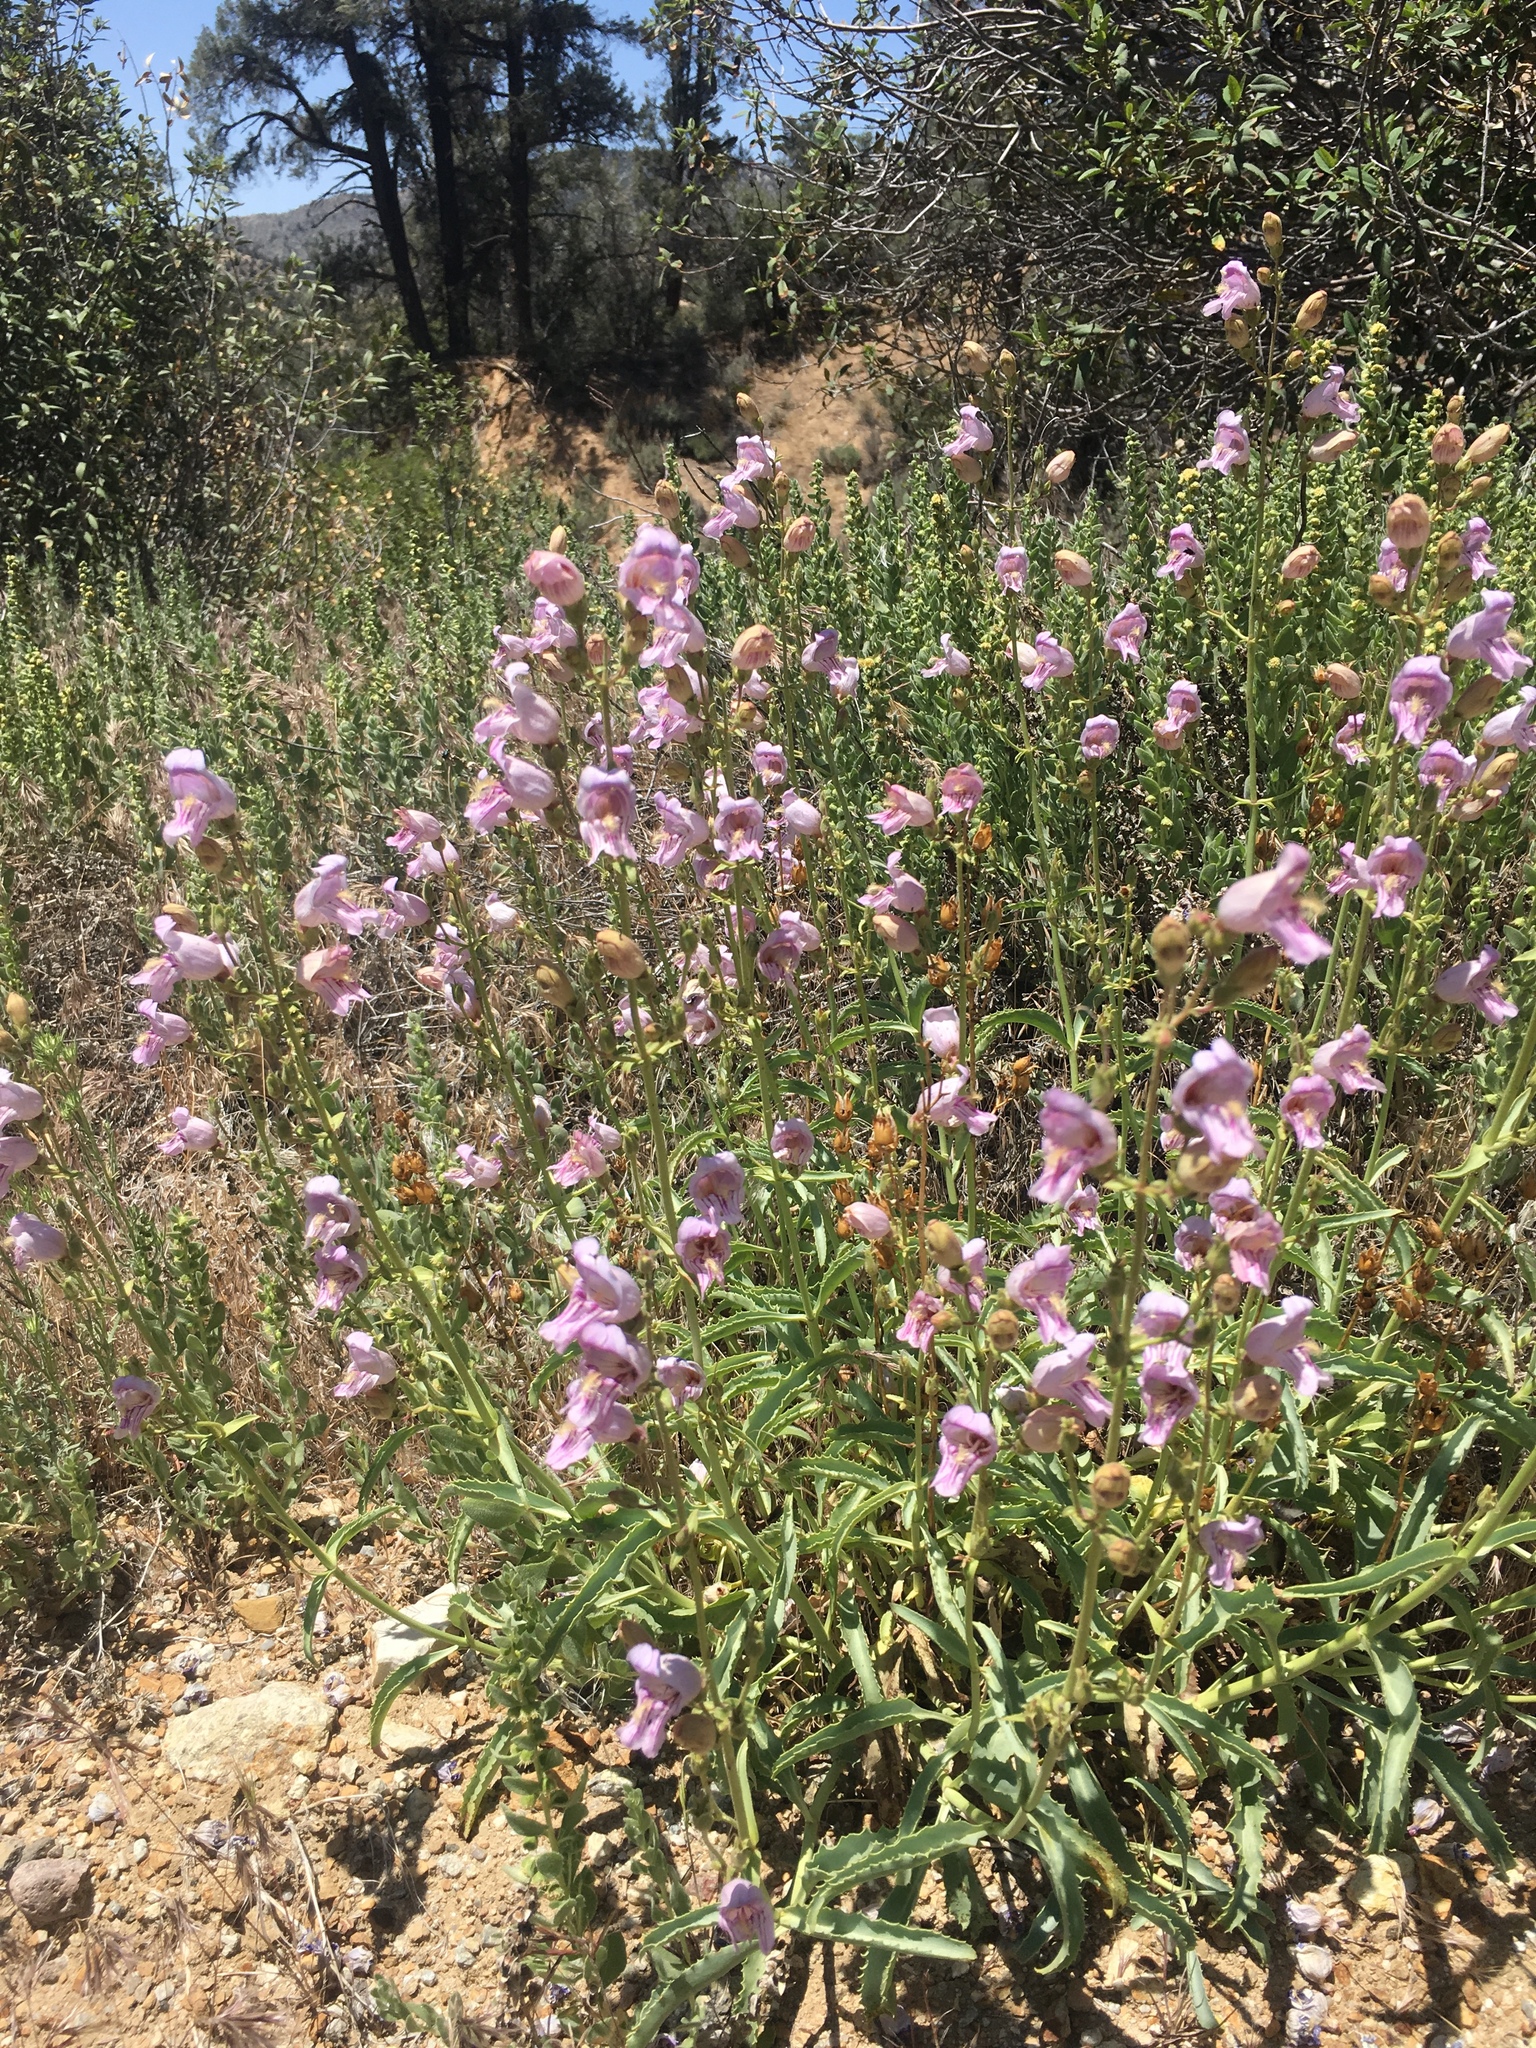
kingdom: Plantae
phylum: Tracheophyta
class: Magnoliopsida
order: Lamiales
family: Plantaginaceae
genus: Penstemon
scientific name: Penstemon grinnellii
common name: Grinnell's beardtongue
